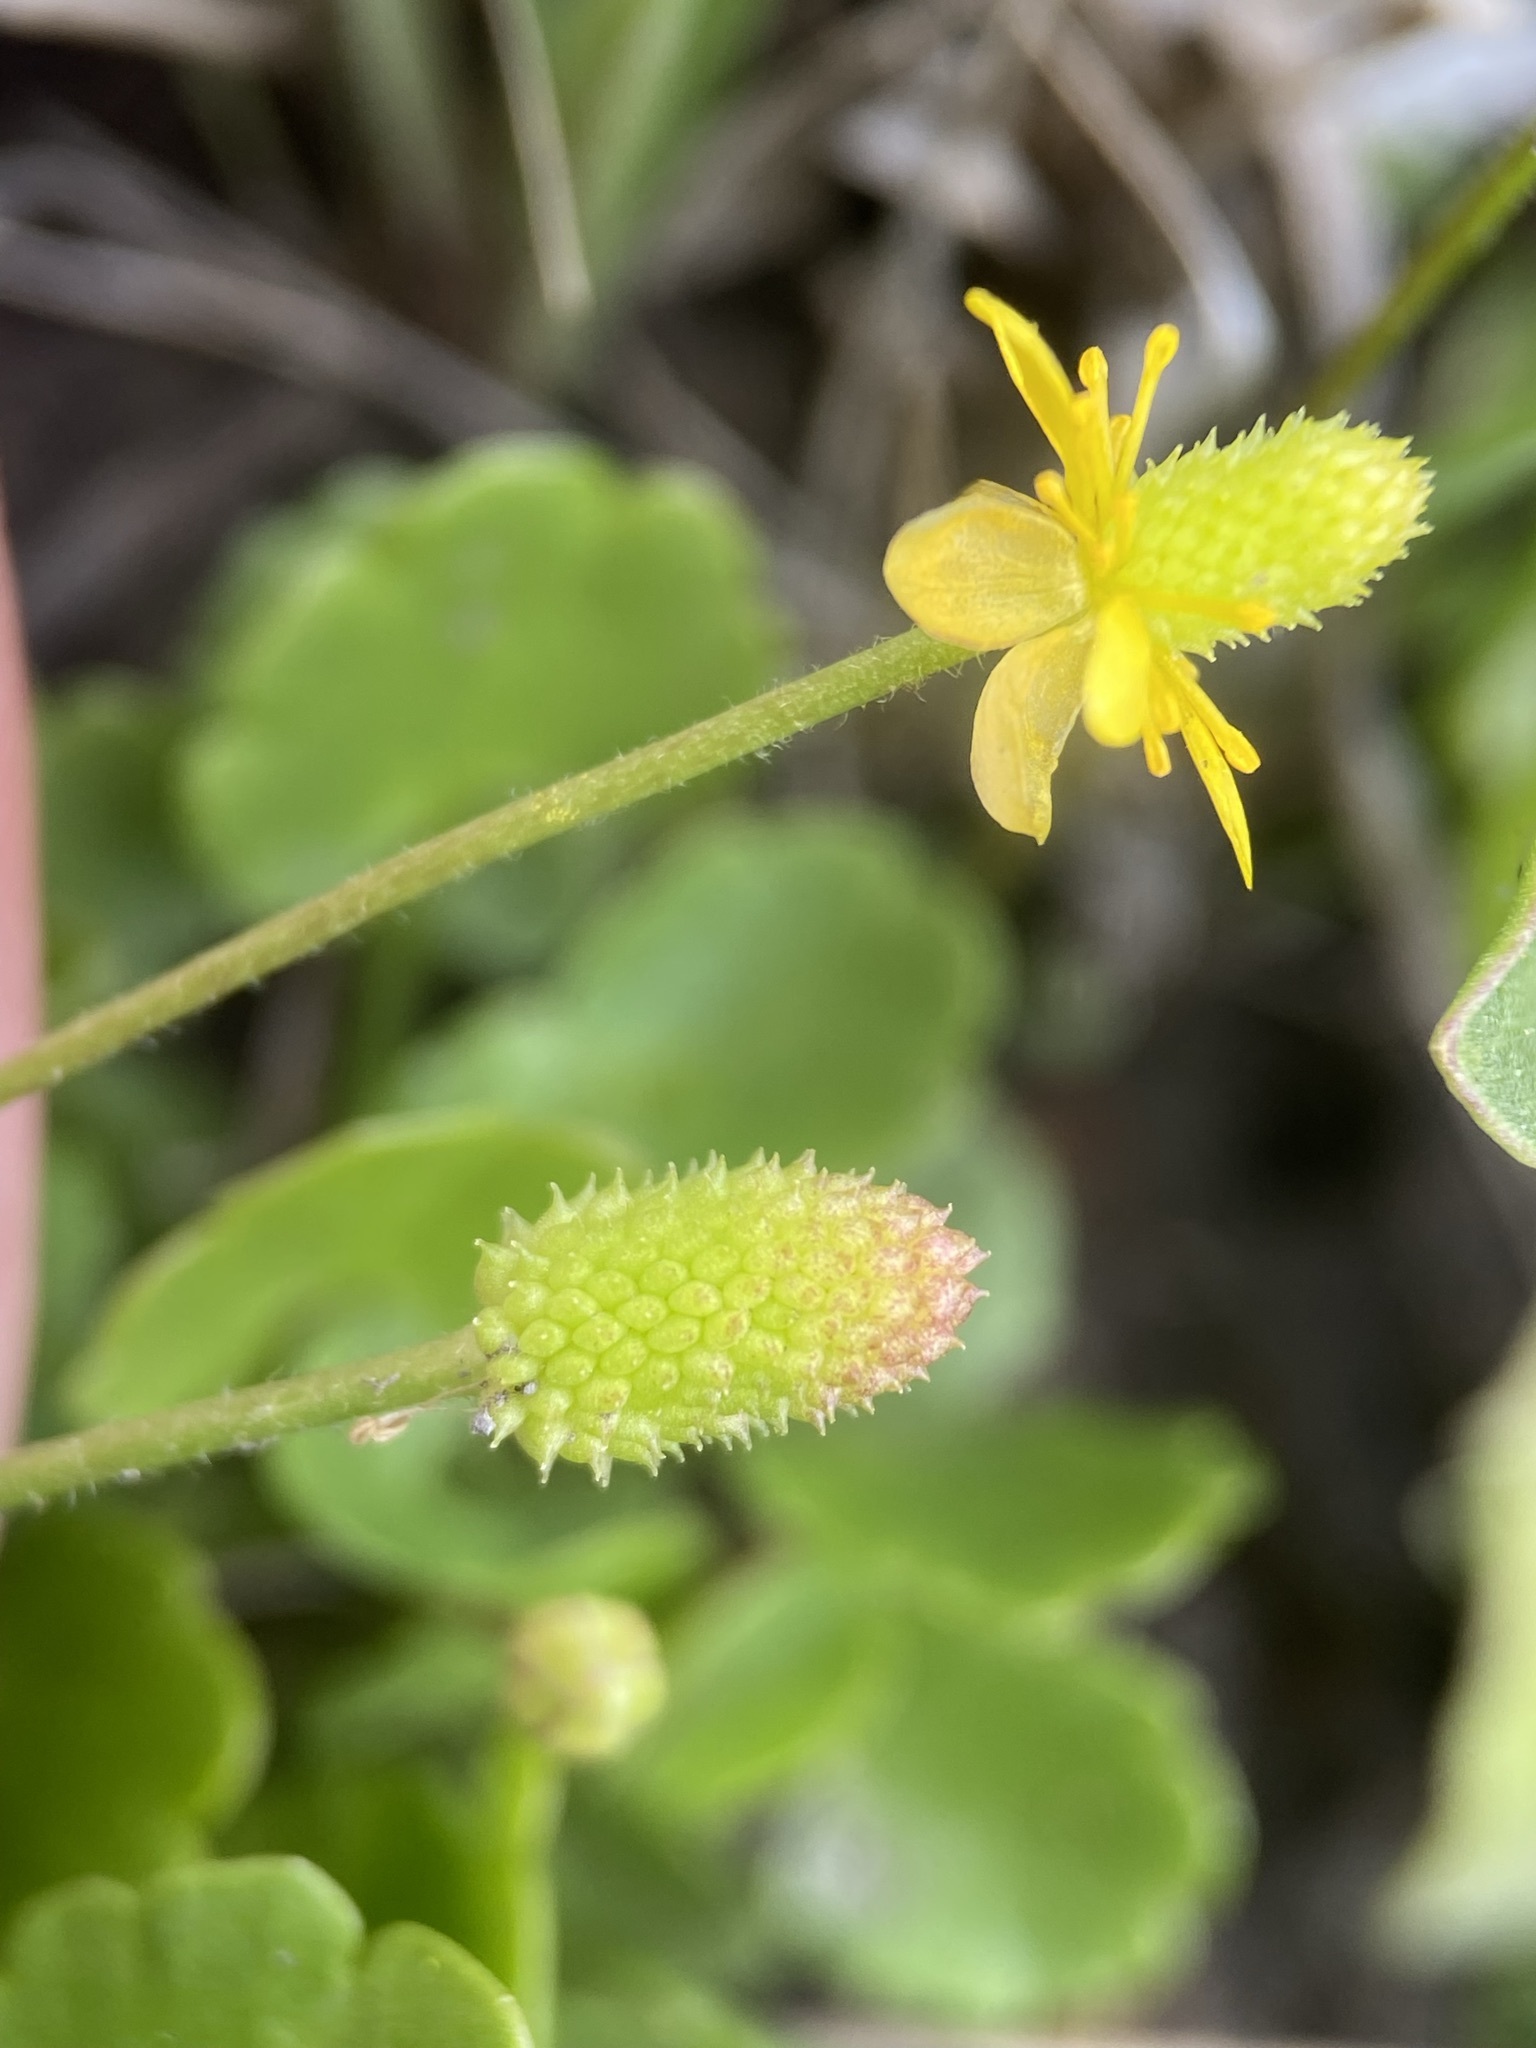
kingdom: Plantae
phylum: Tracheophyta
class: Magnoliopsida
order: Ranunculales
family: Ranunculaceae
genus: Halerpestes
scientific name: Halerpestes cymbalaria
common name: Seaside crowfoot
